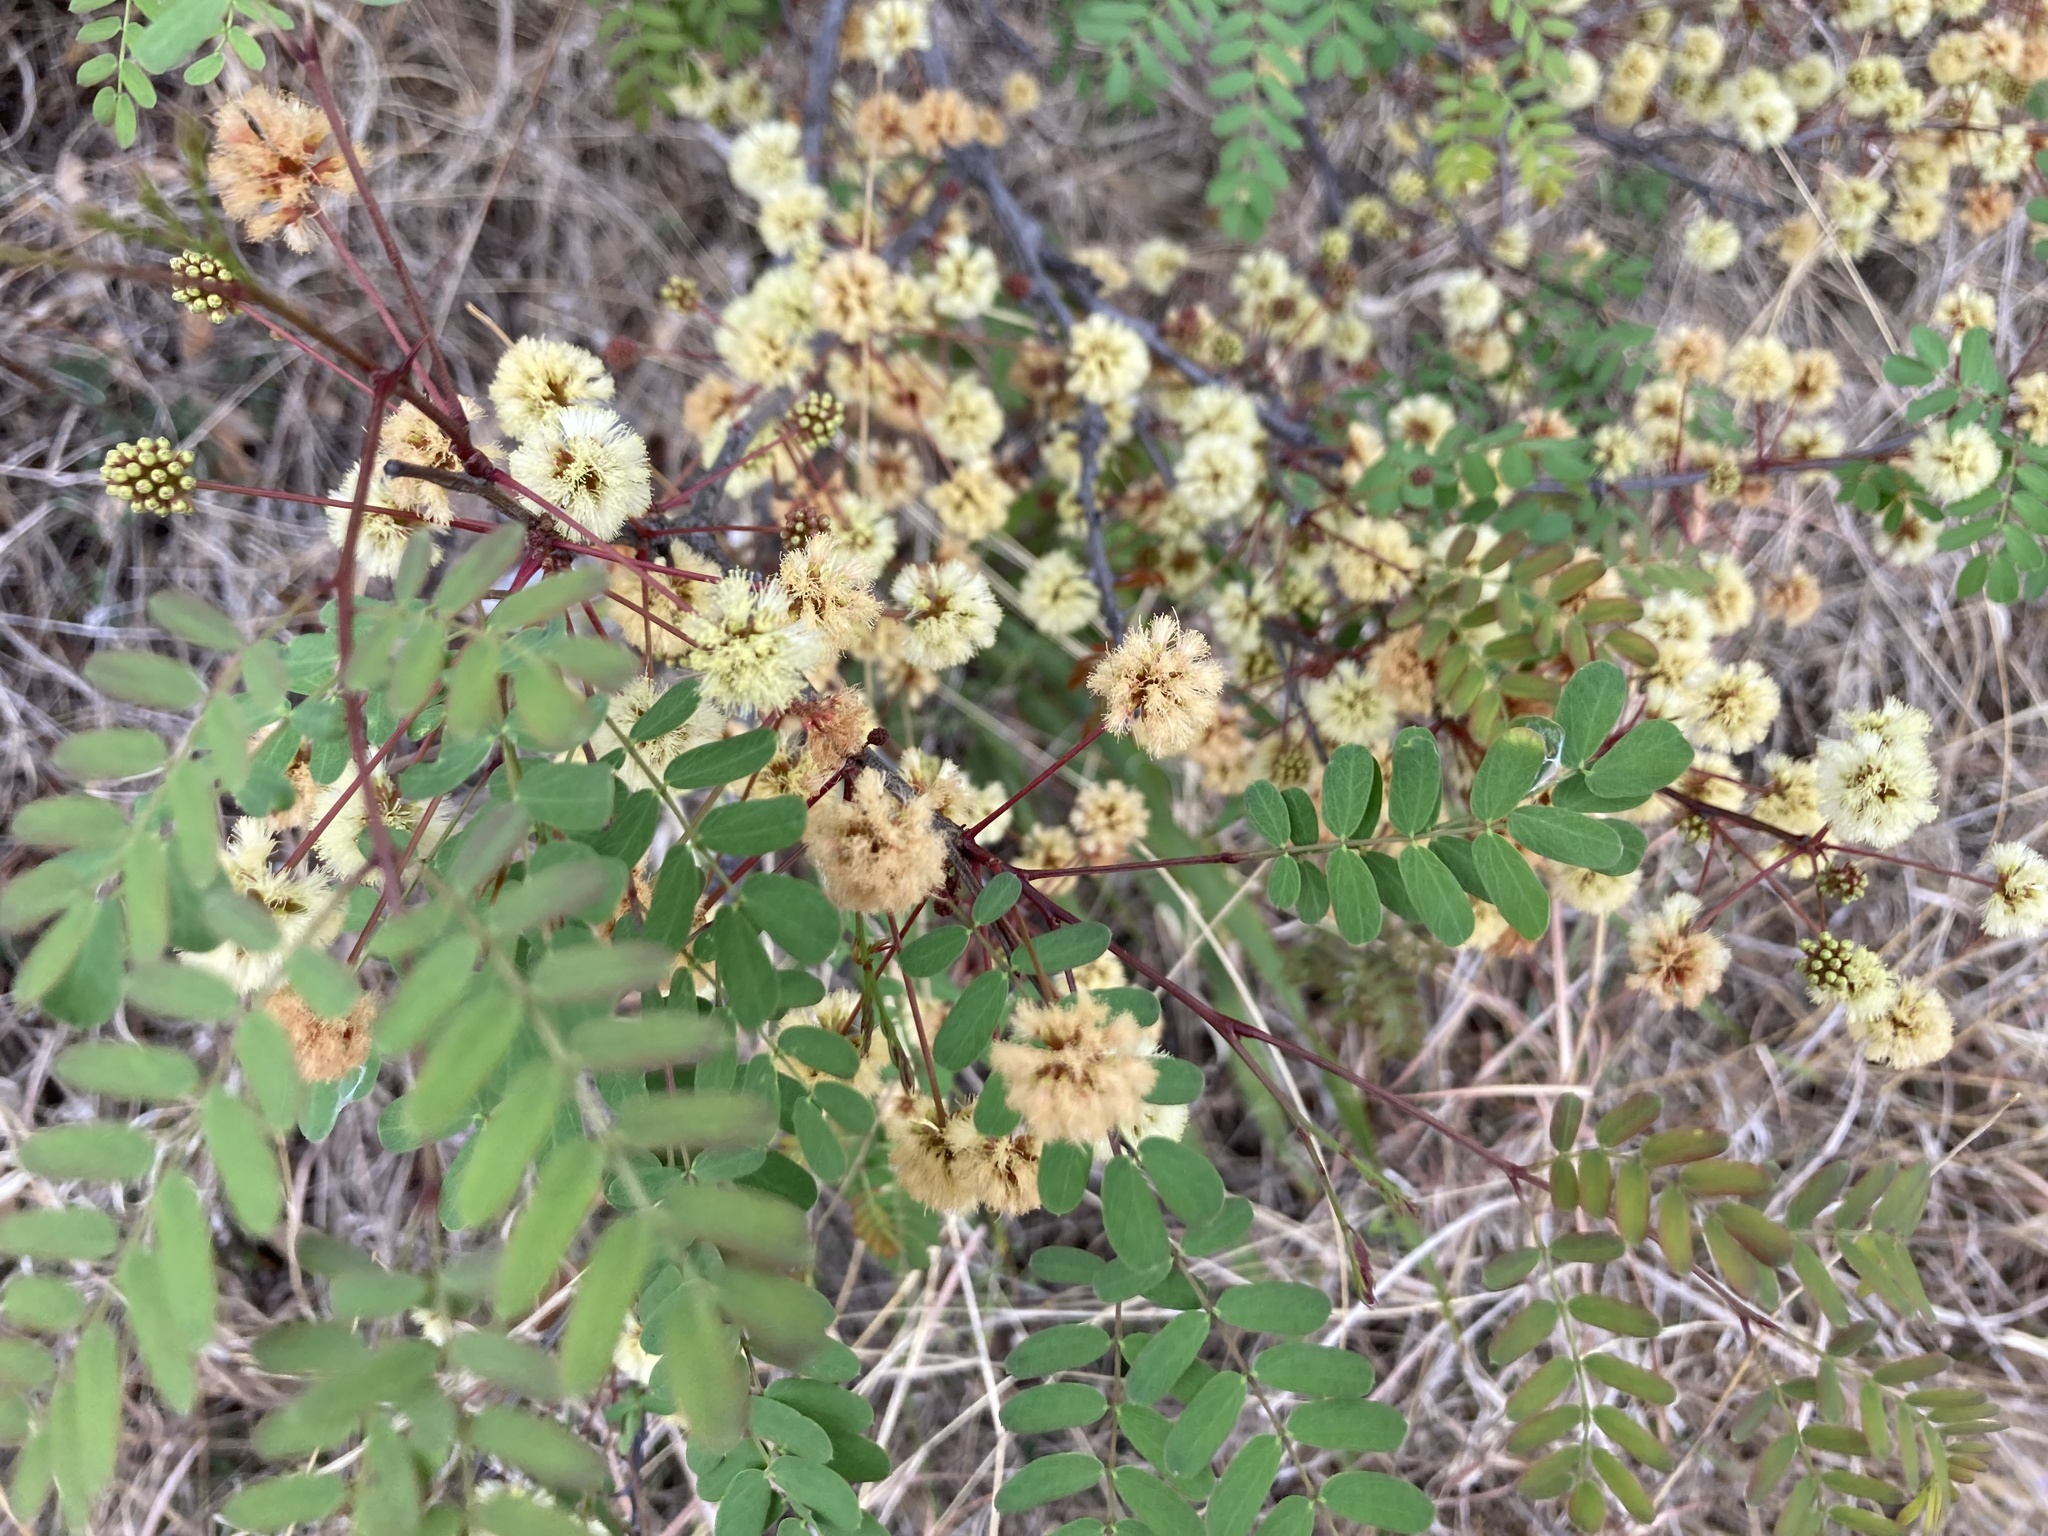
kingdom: Plantae
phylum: Tracheophyta
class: Magnoliopsida
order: Fabales
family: Fabaceae
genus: Senegalia
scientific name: Senegalia roemeriana
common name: Roemer's acacia
